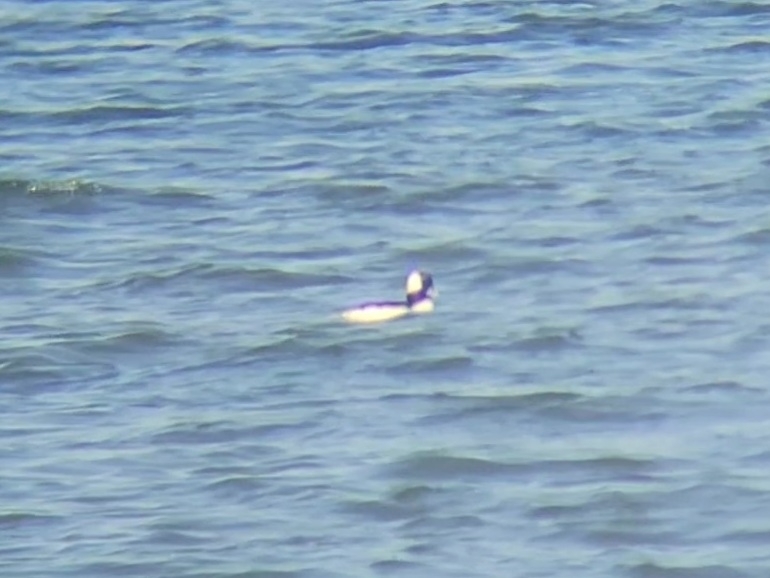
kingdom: Animalia
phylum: Chordata
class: Aves
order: Anseriformes
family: Anatidae
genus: Bucephala
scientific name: Bucephala albeola
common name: Bufflehead
